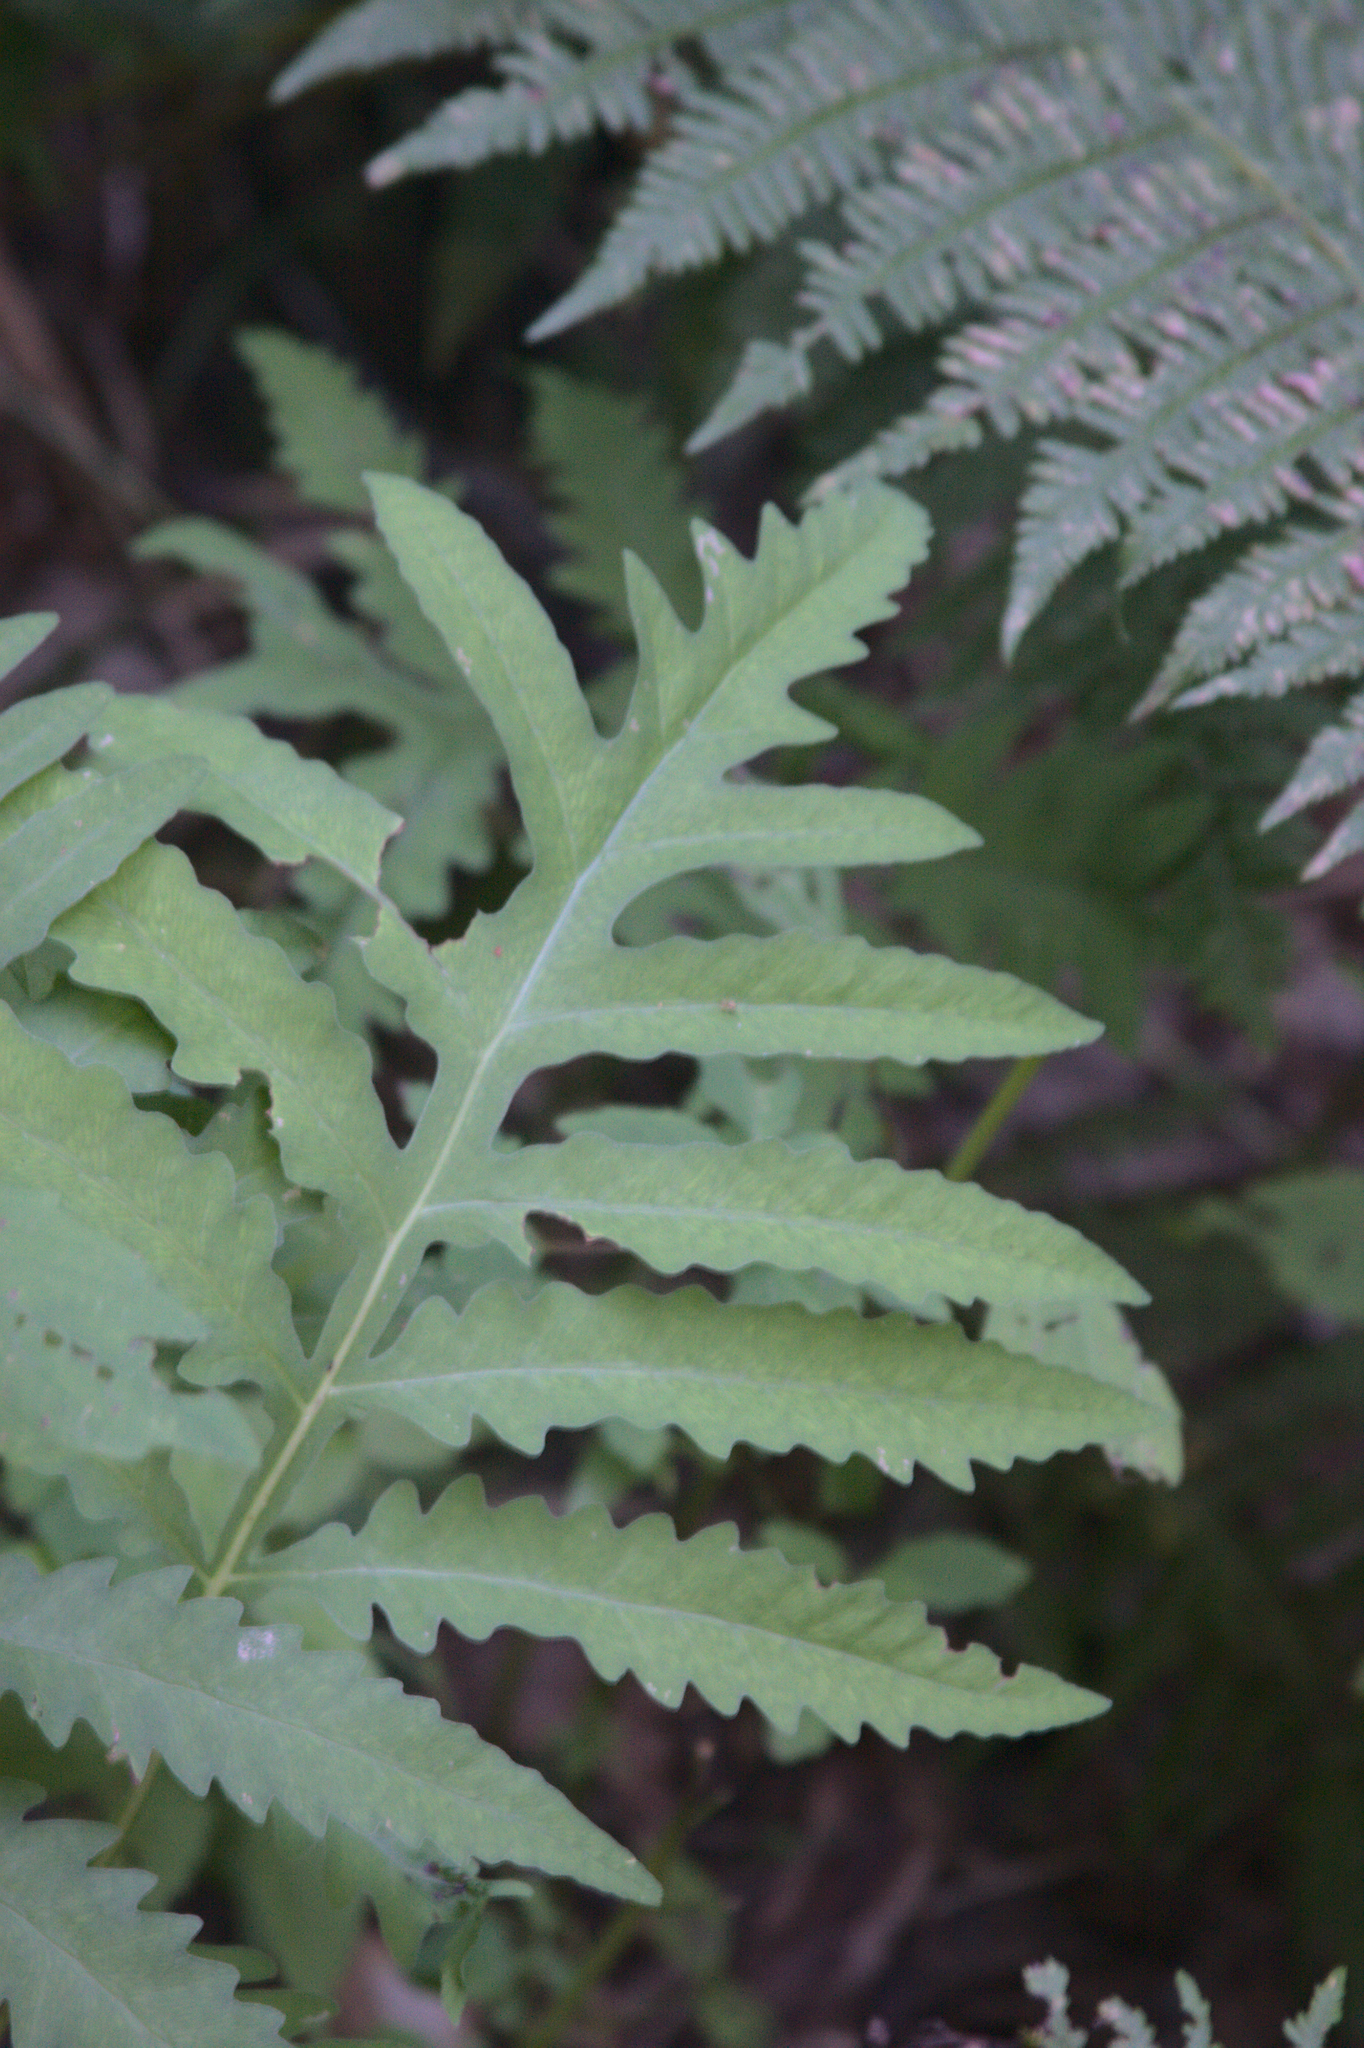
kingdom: Plantae
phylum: Tracheophyta
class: Polypodiopsida
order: Polypodiales
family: Onocleaceae
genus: Onoclea
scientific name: Onoclea sensibilis
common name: Sensitive fern
